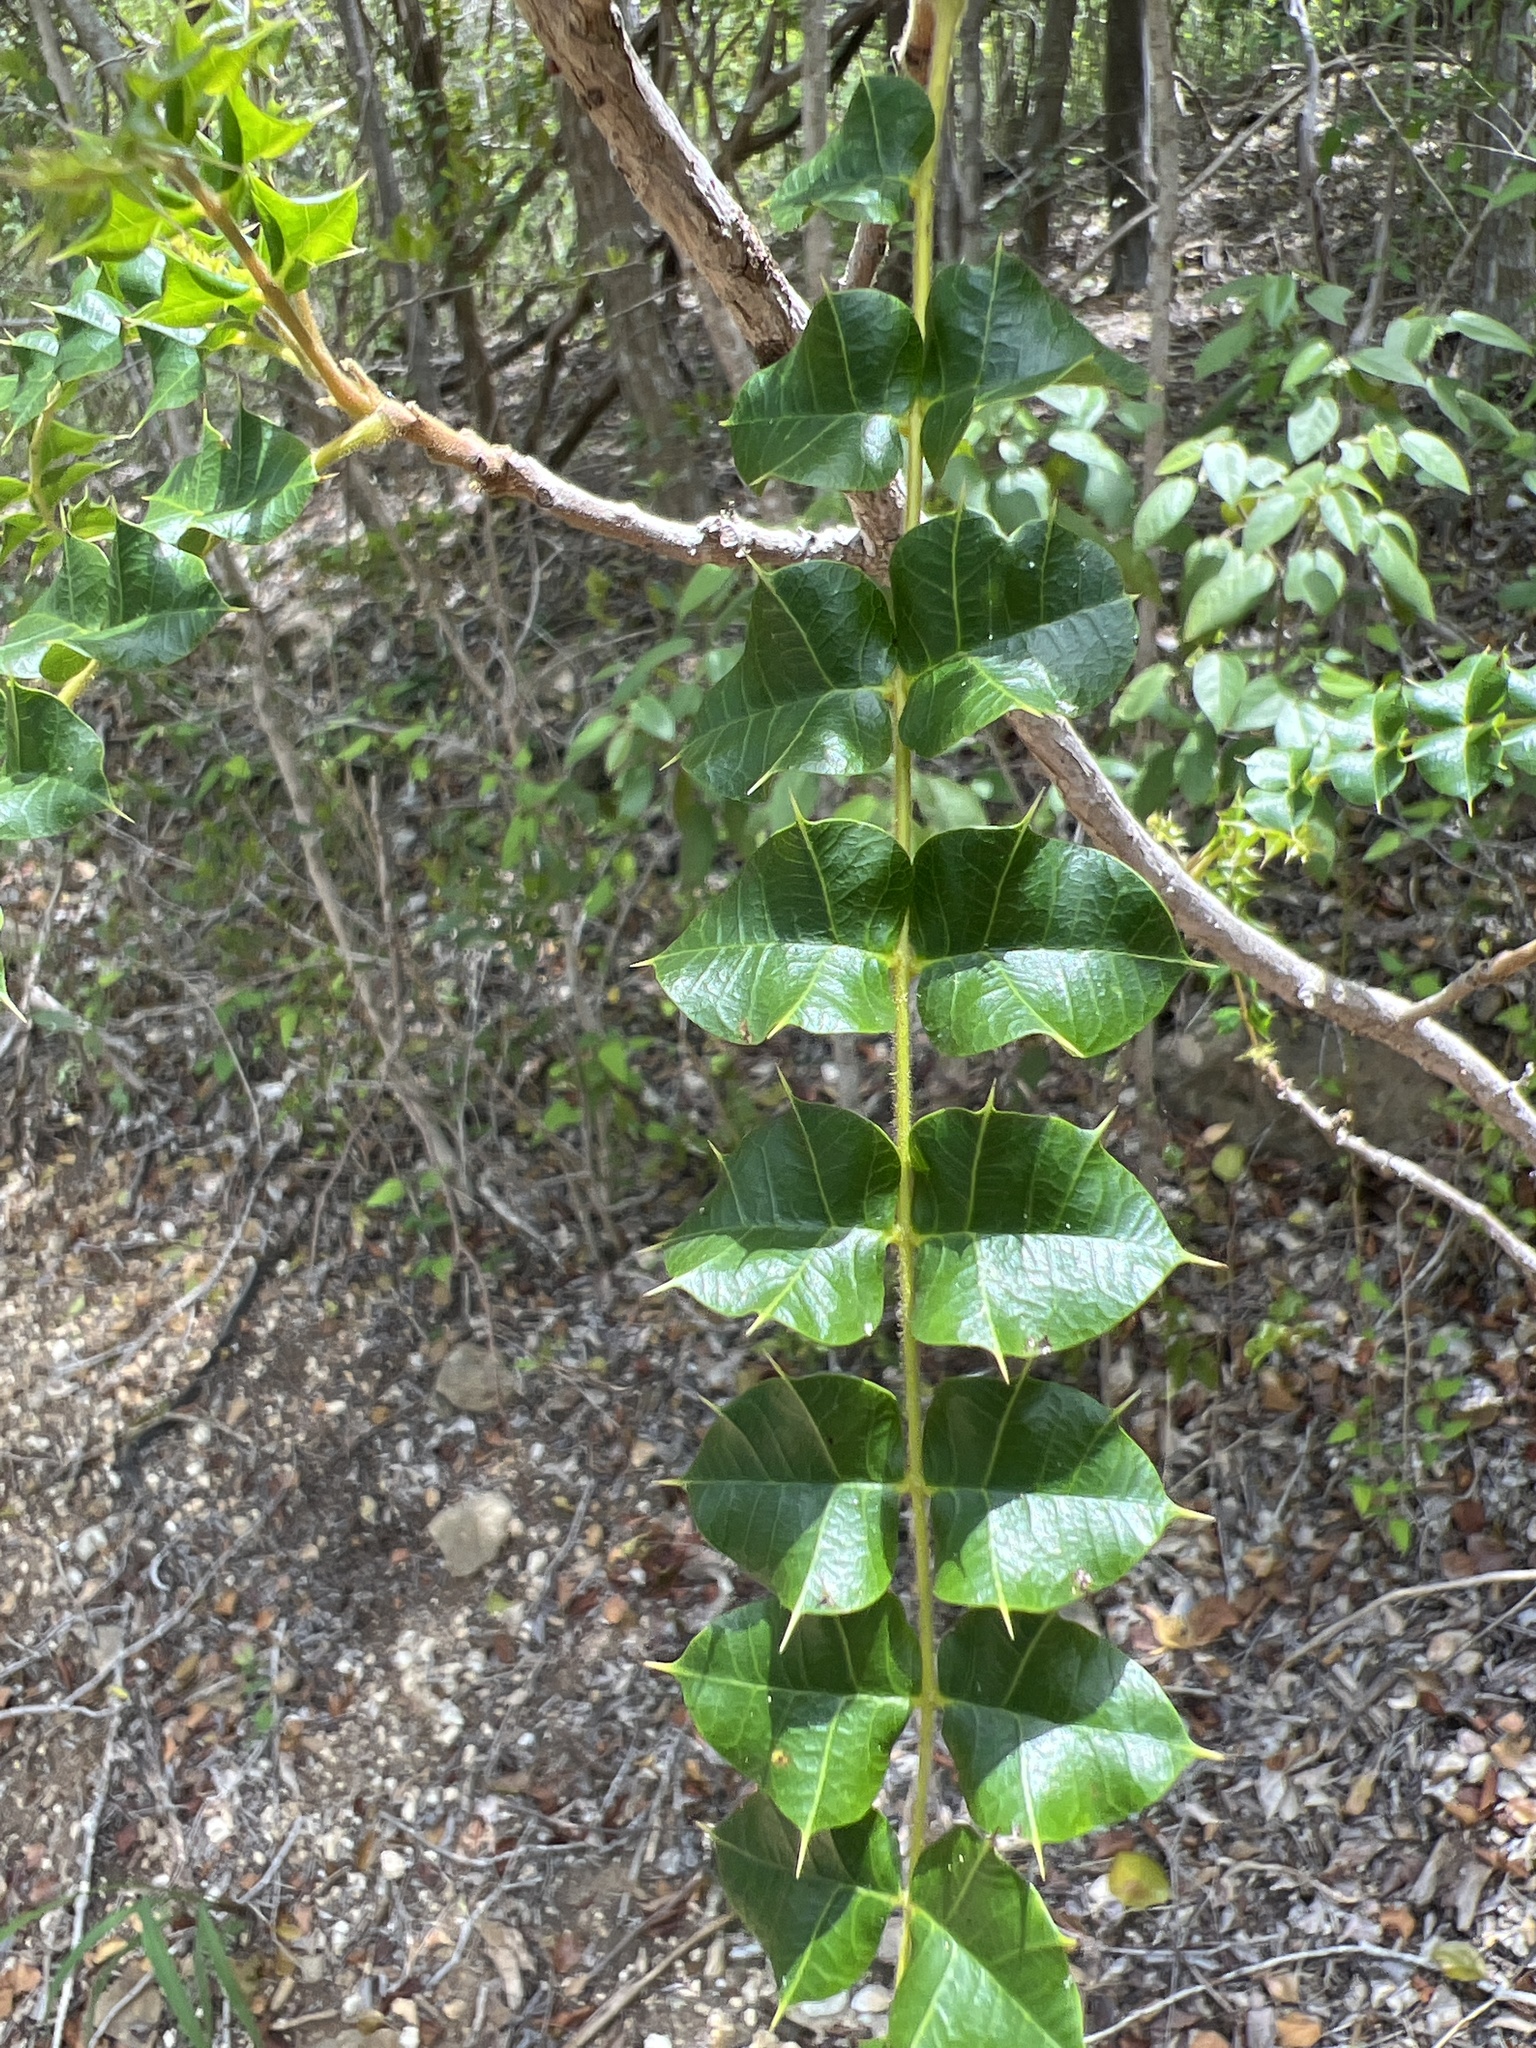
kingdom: Plantae
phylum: Tracheophyta
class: Magnoliopsida
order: Sapindales
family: Anacardiaceae
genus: Comocladia
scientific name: Comocladia dodonaea
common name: Poison ash
